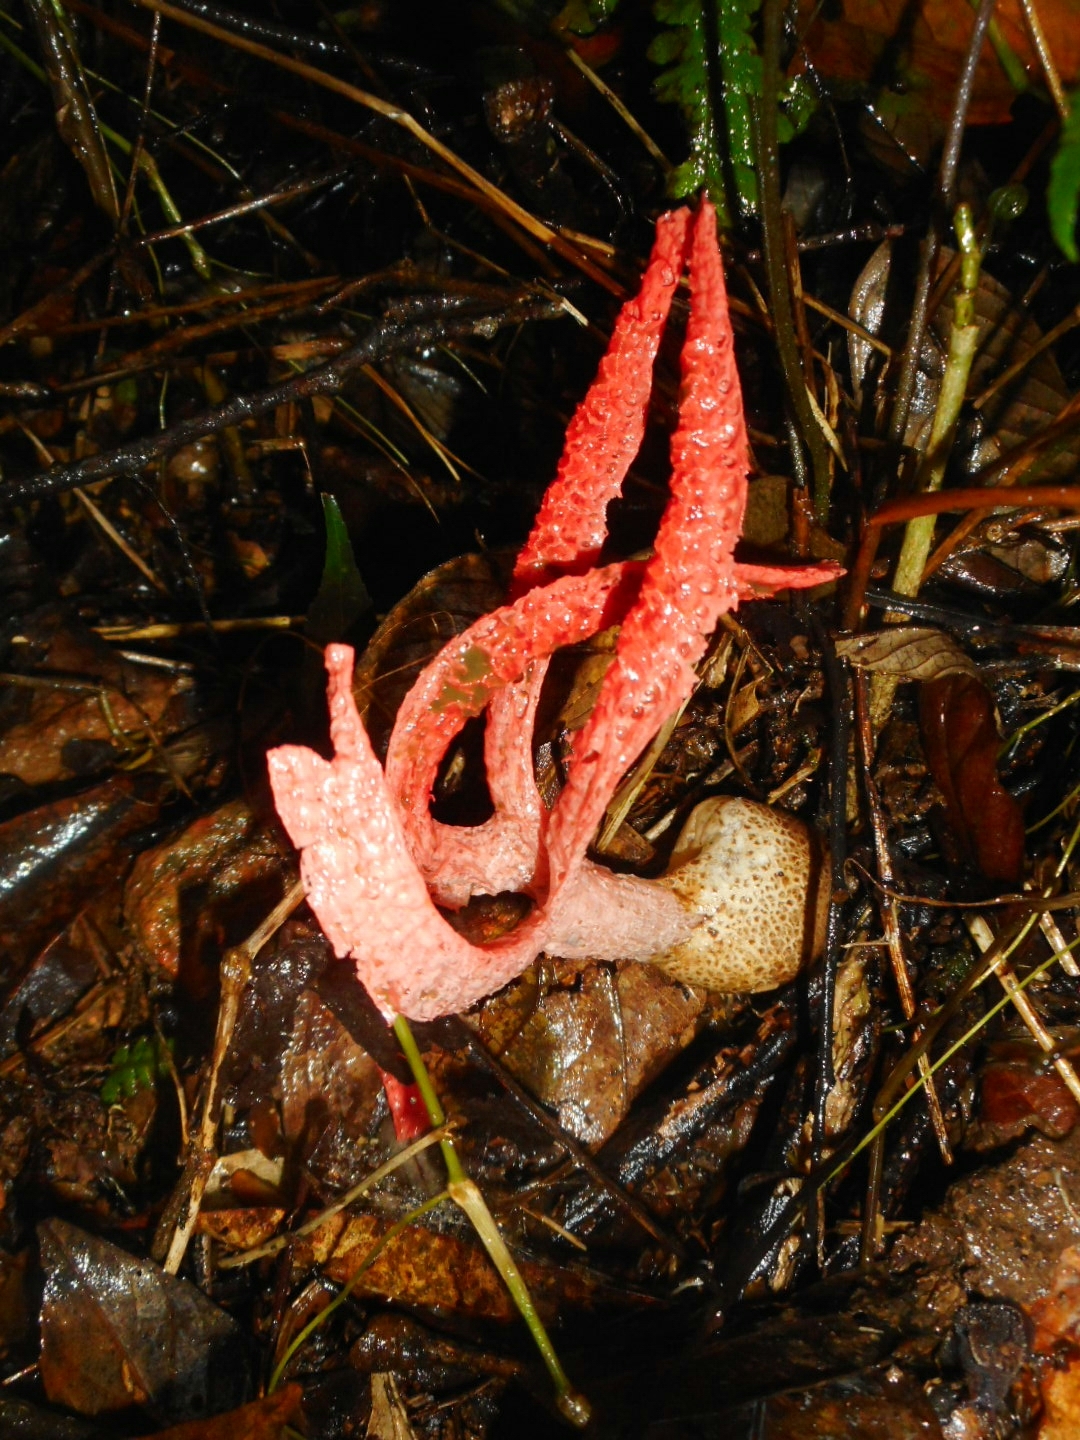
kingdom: Fungi
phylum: Basidiomycota
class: Agaricomycetes
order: Phallales
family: Phallaceae
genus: Pseudoclathrus
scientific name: Pseudoclathrus cylindrosporus
